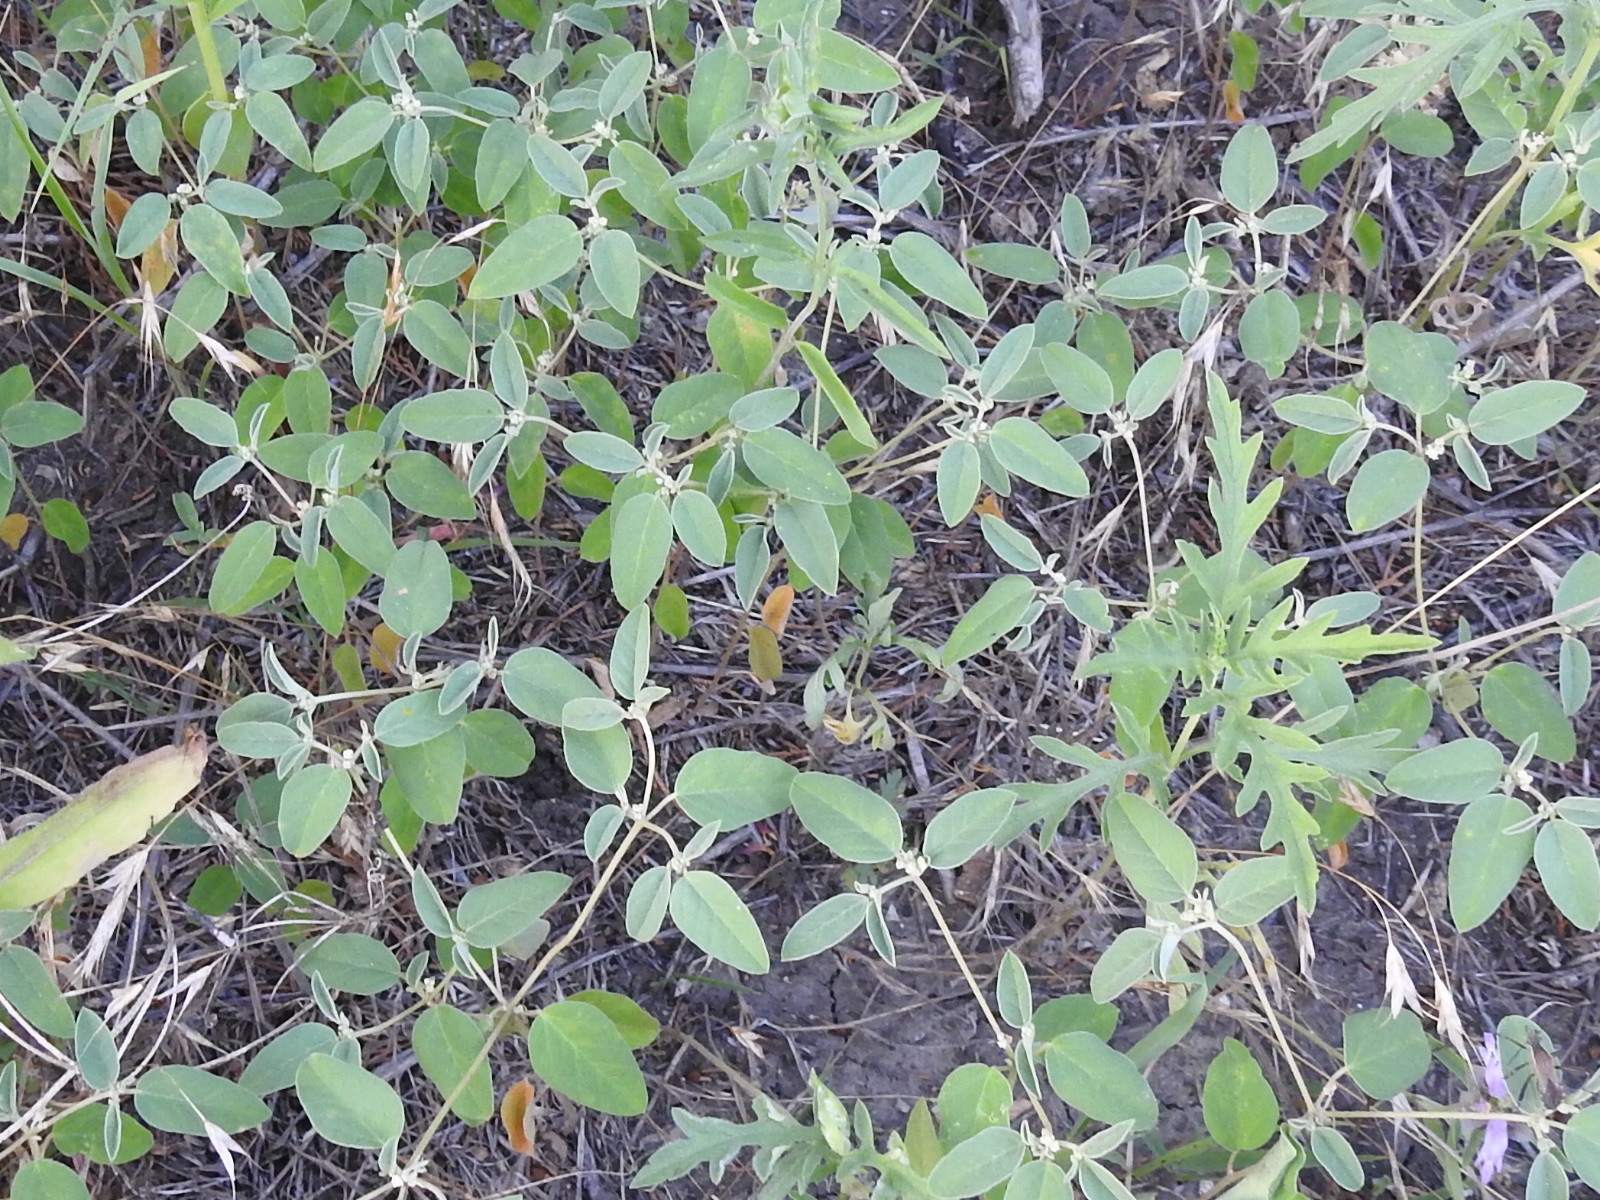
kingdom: Plantae
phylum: Tracheophyta
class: Magnoliopsida
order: Malpighiales
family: Euphorbiaceae
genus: Croton
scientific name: Croton monanthogynus
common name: One-seed croton
